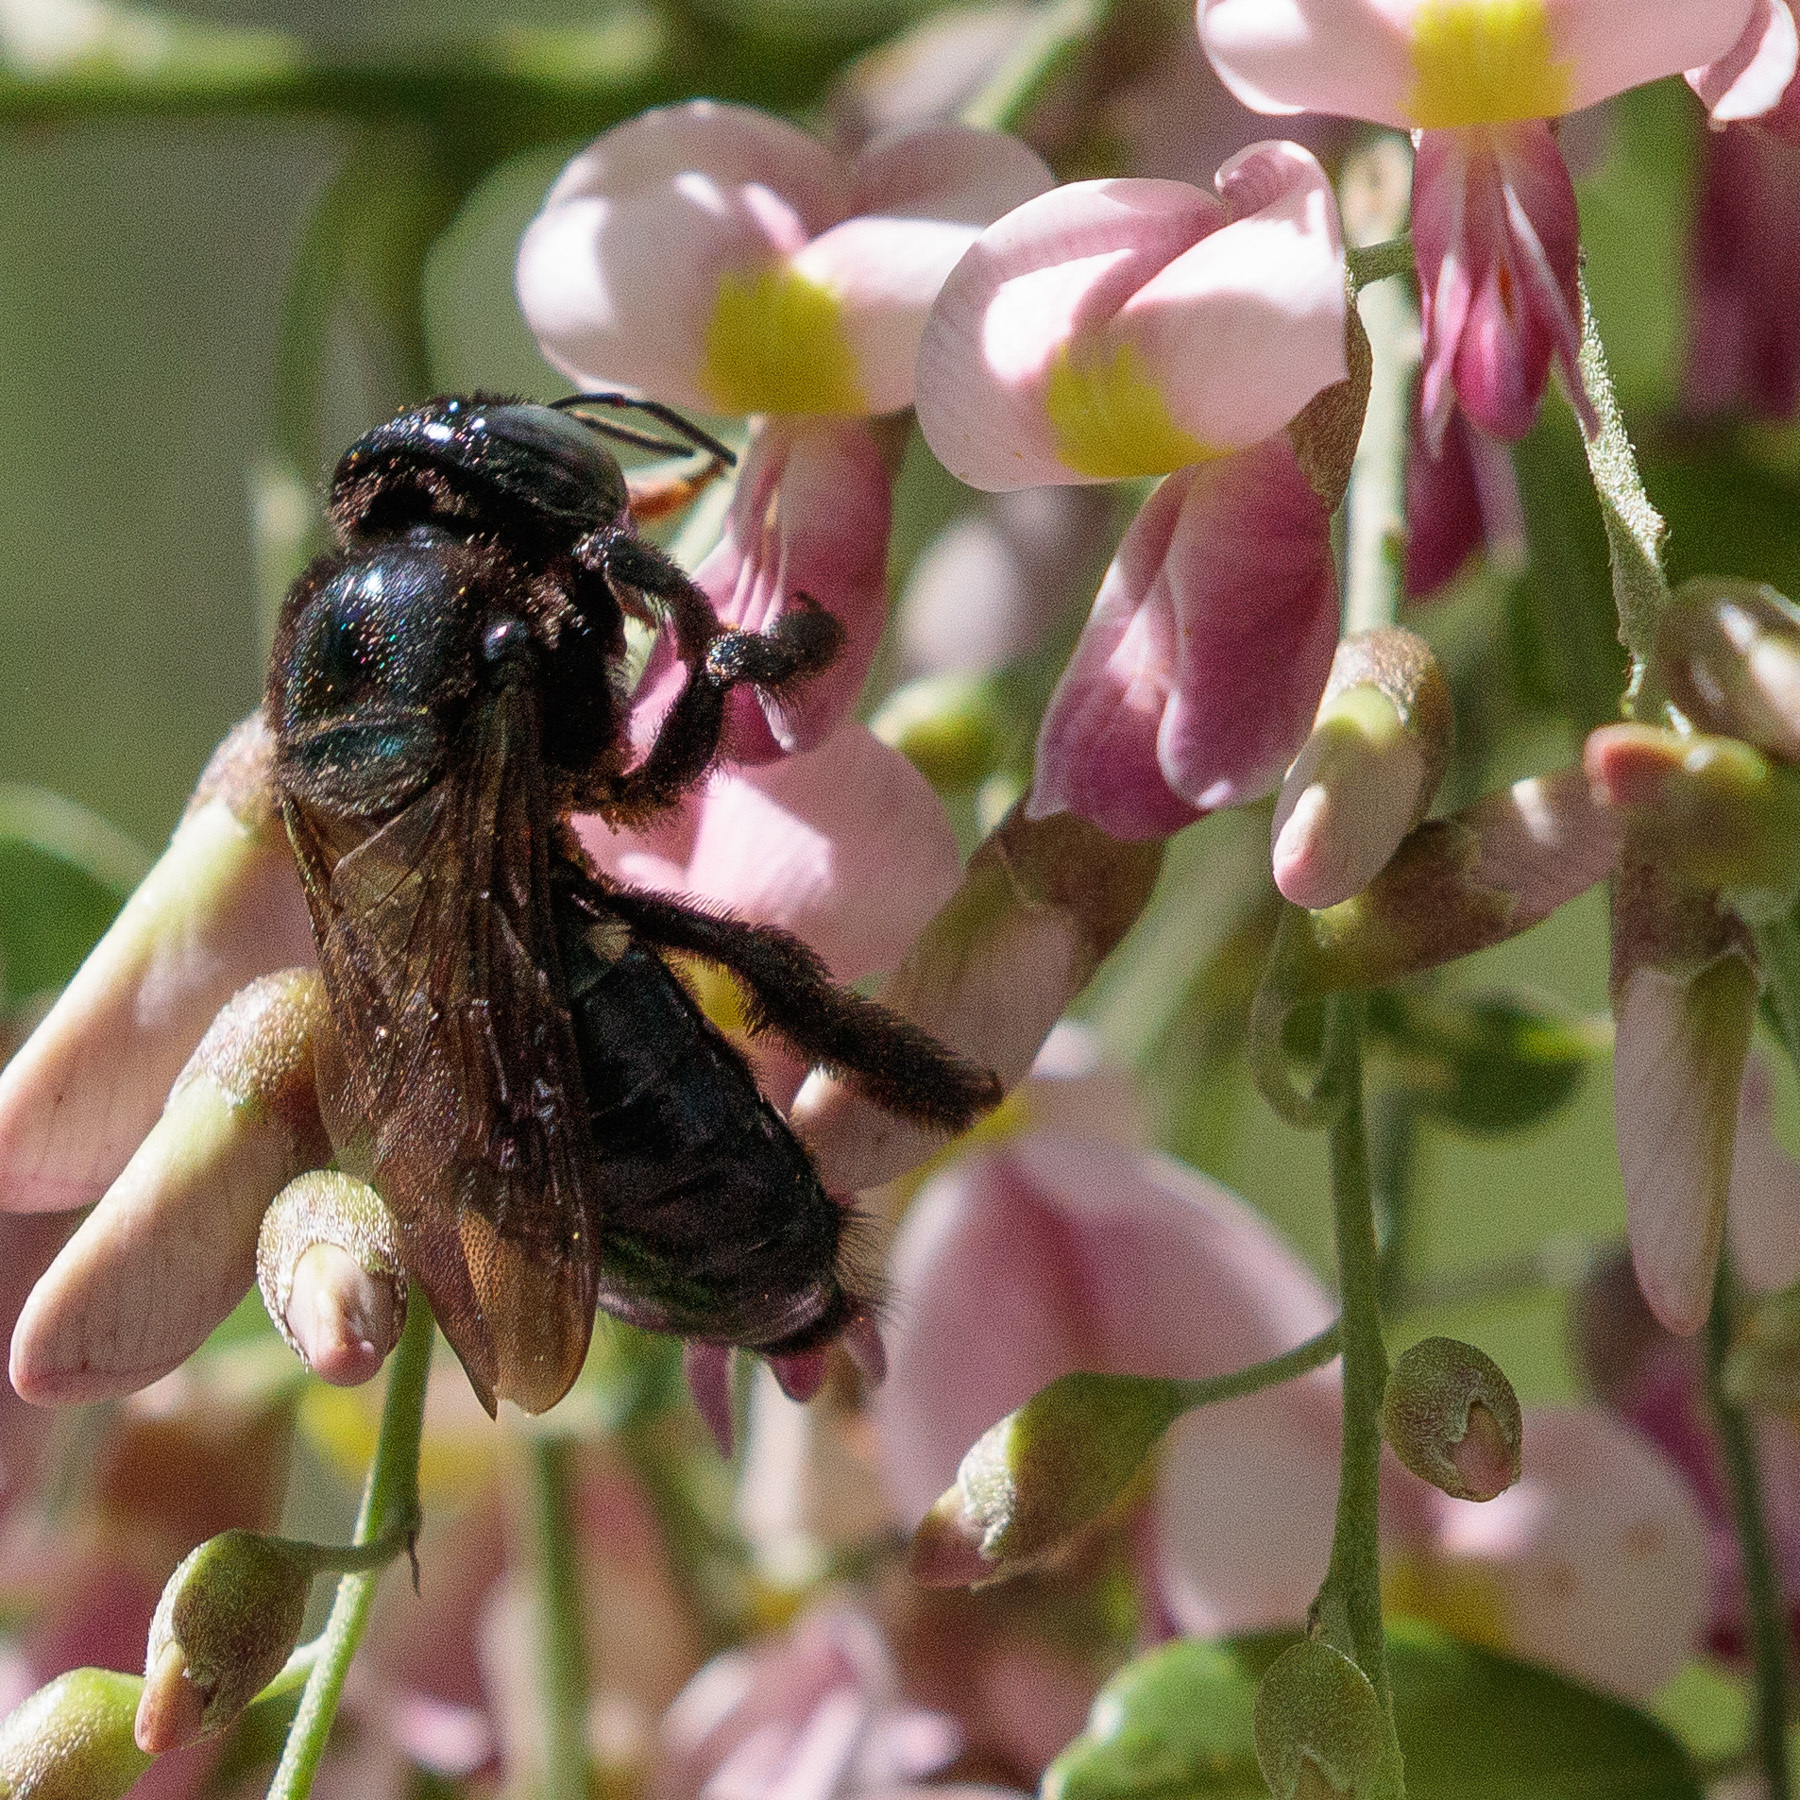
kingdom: Animalia
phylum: Arthropoda
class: Insecta
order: Hymenoptera
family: Apidae
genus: Xylocopa
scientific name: Xylocopa micans
